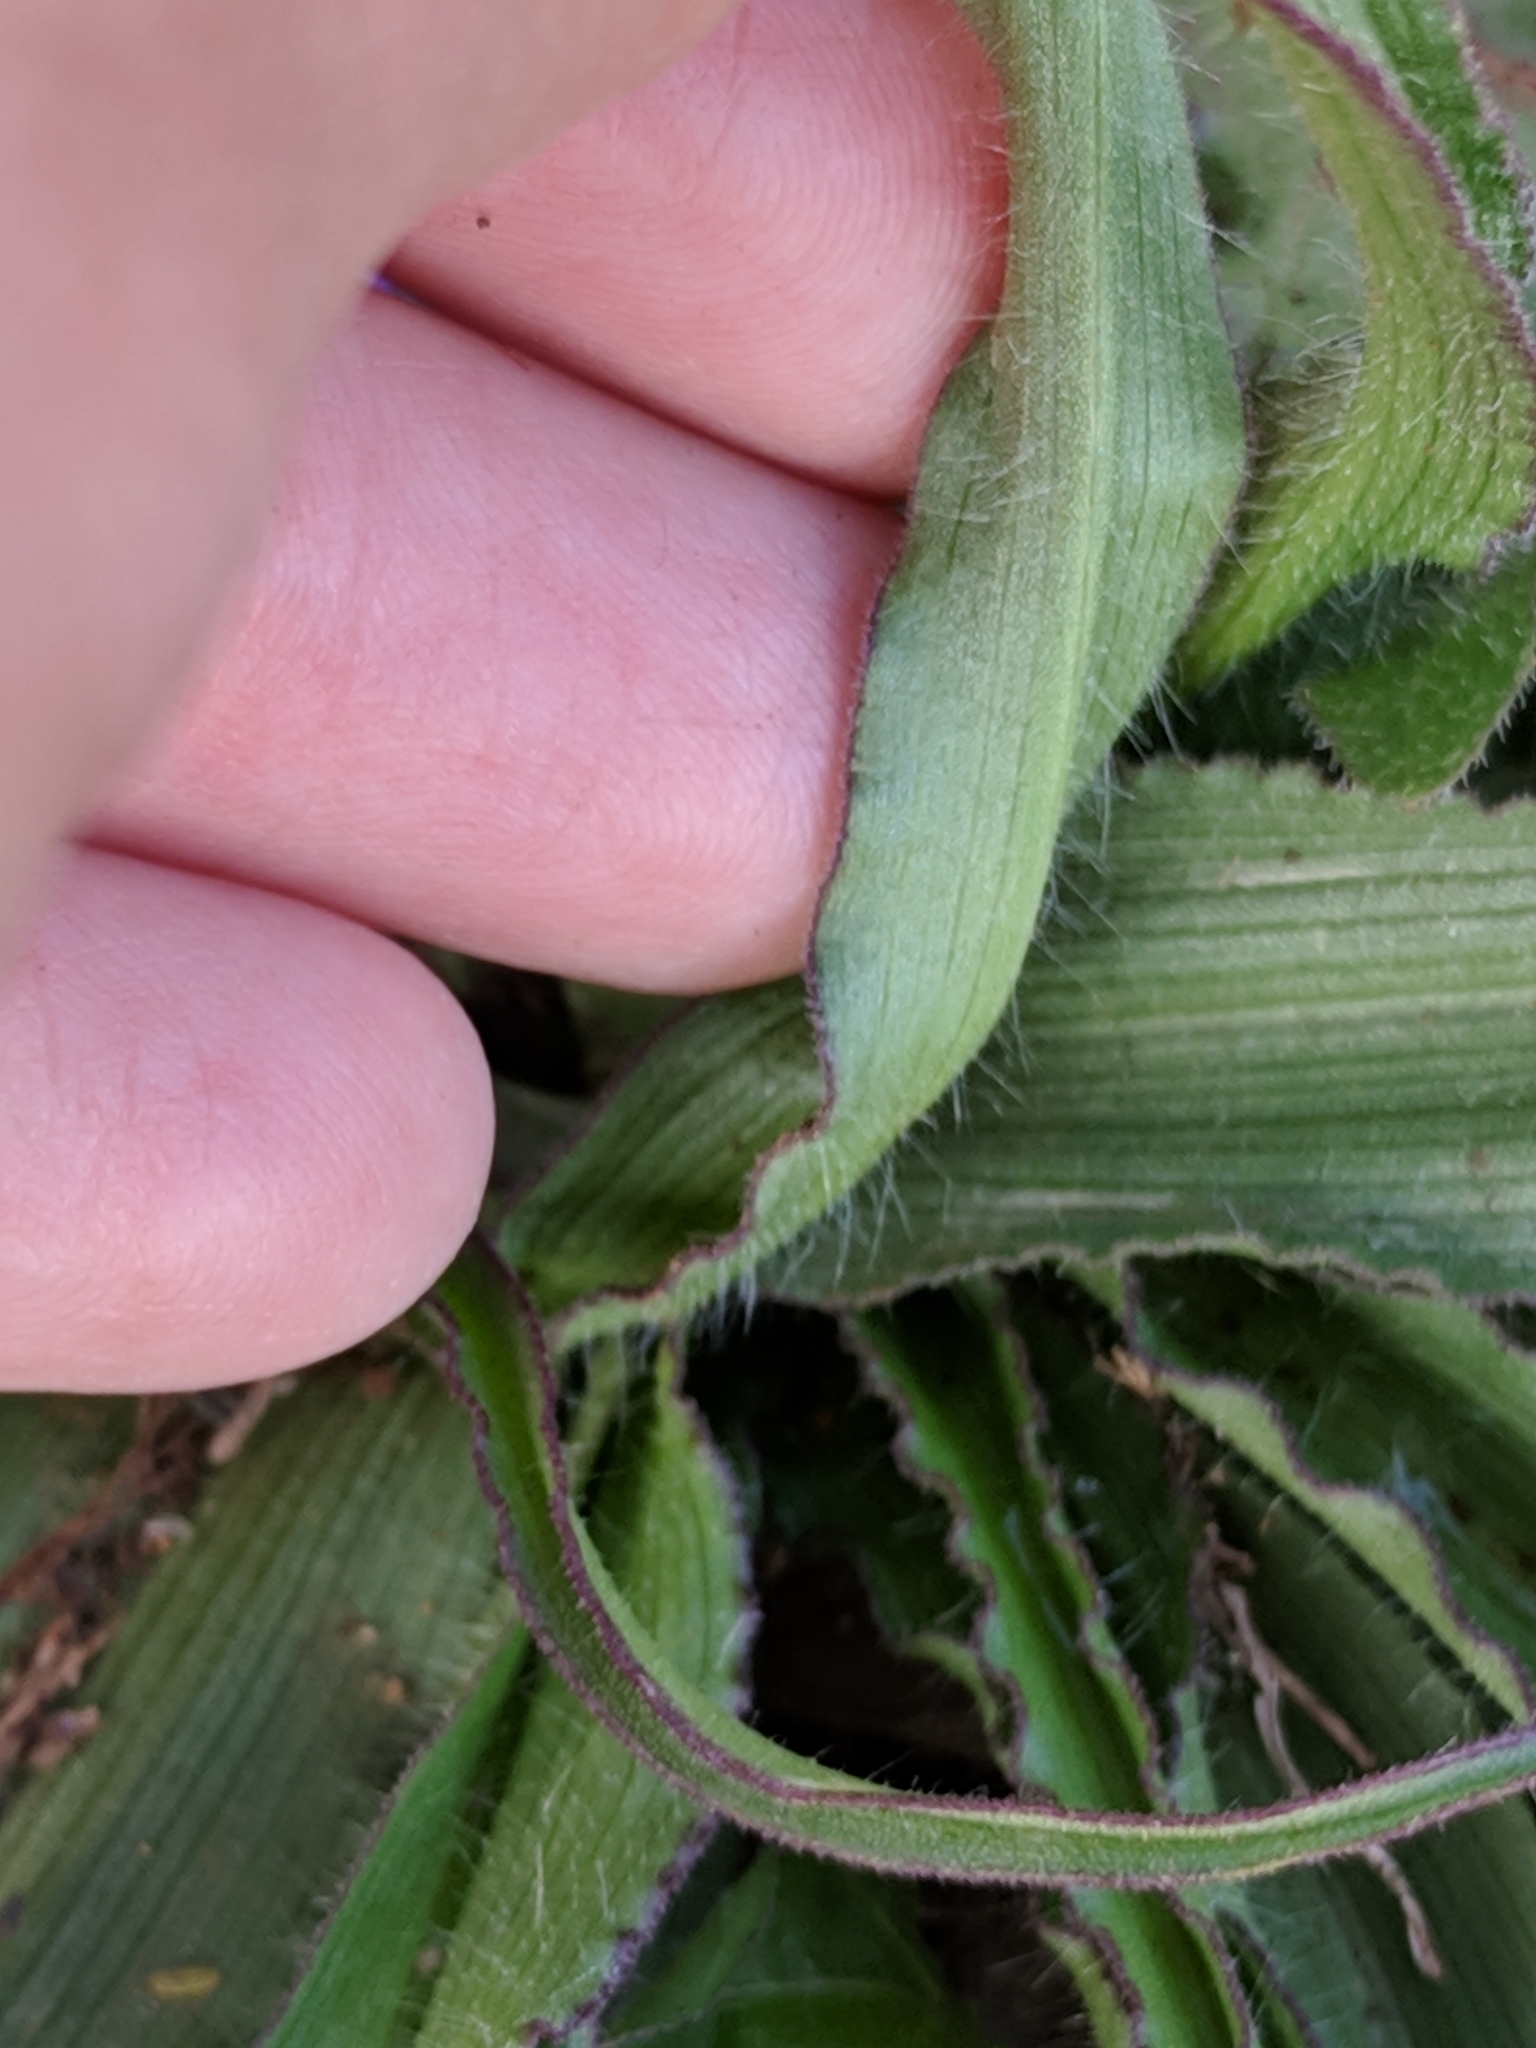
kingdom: Plantae
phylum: Tracheophyta
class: Liliopsida
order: Commelinales
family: Commelinaceae
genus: Tradescantia
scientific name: Tradescantia tharpii
